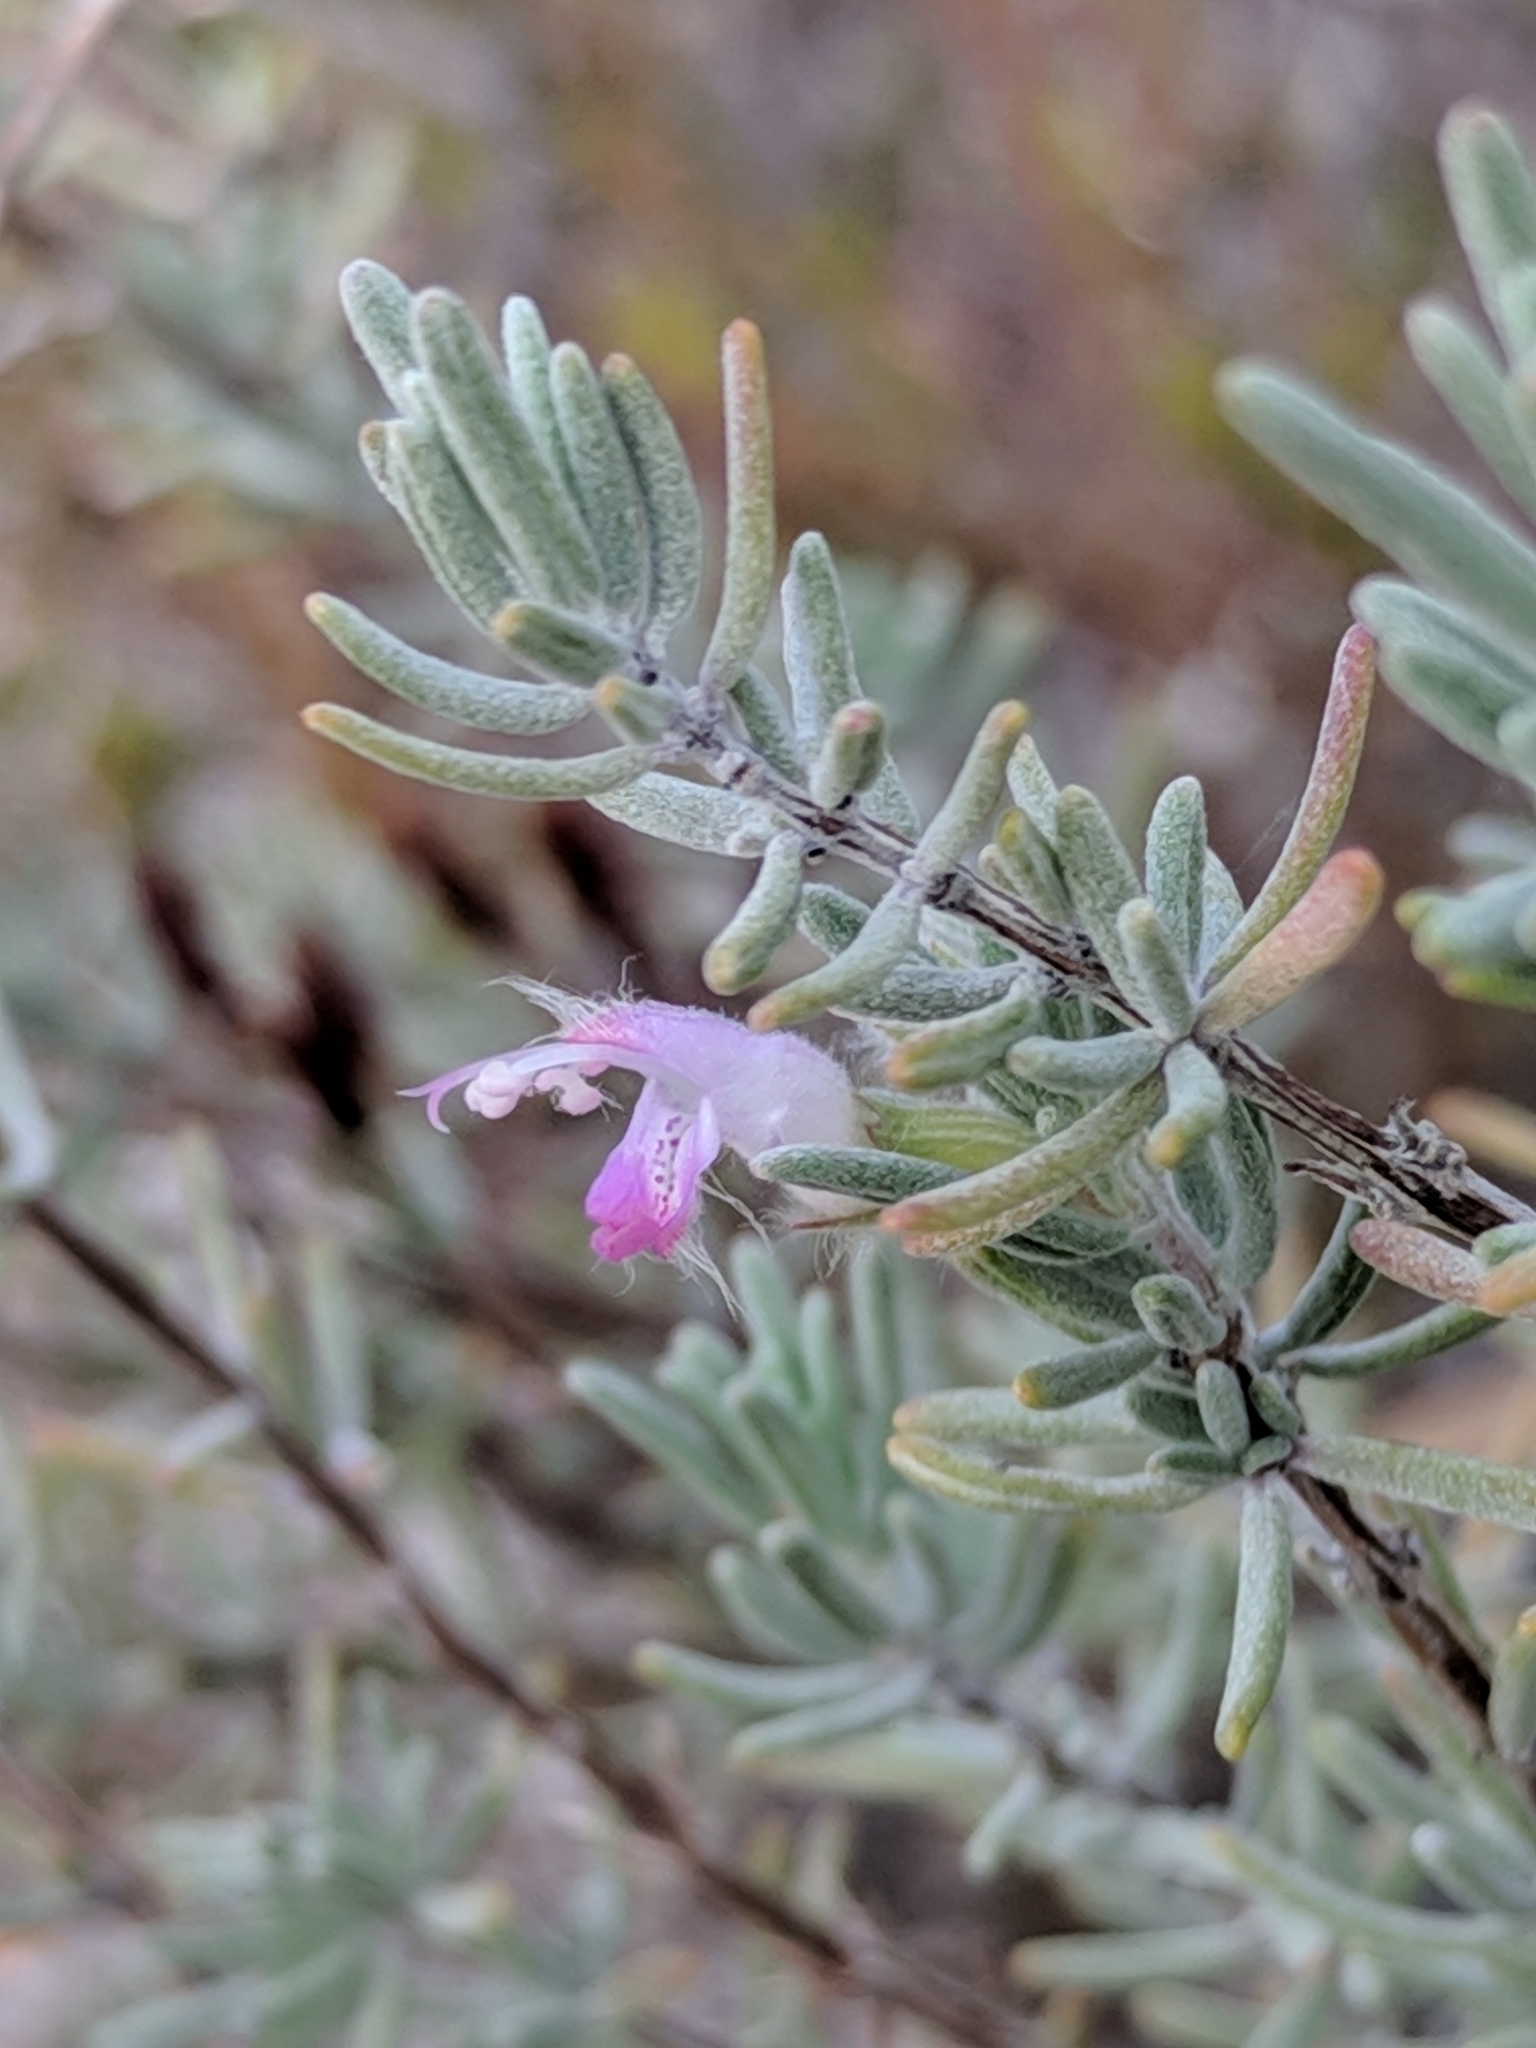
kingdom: Plantae
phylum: Tracheophyta
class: Magnoliopsida
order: Lamiales
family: Lamiaceae
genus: Conradina
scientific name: Conradina canescens
